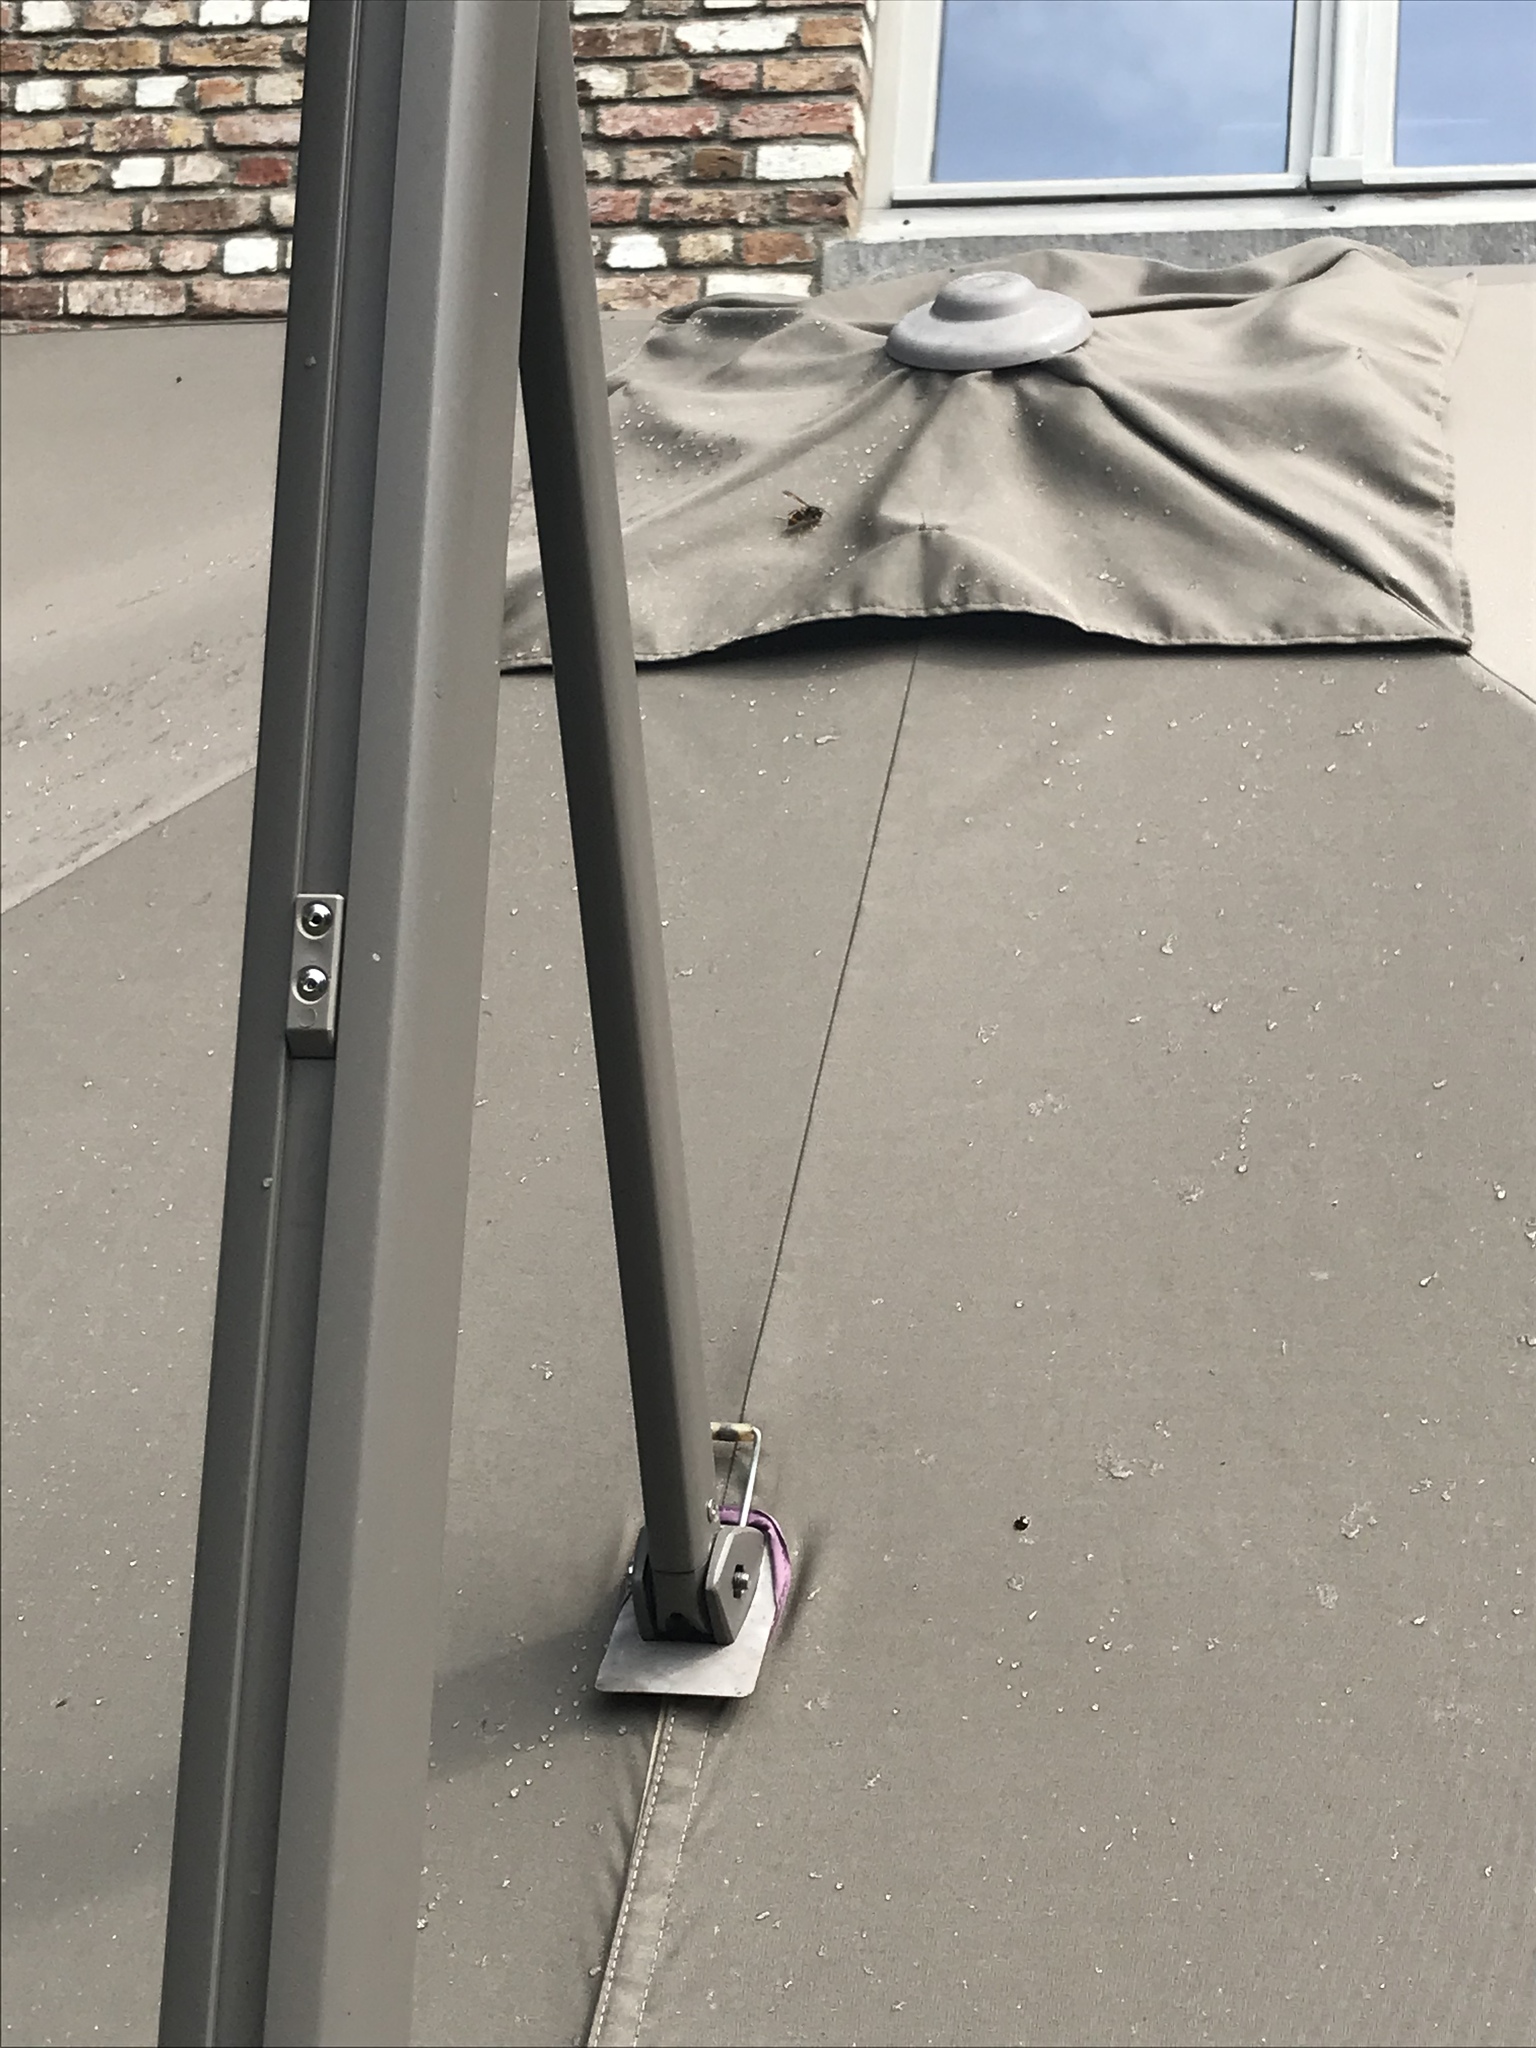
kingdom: Animalia
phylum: Arthropoda
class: Insecta
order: Hymenoptera
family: Vespidae
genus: Vespa
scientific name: Vespa velutina
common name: Asian hornet
